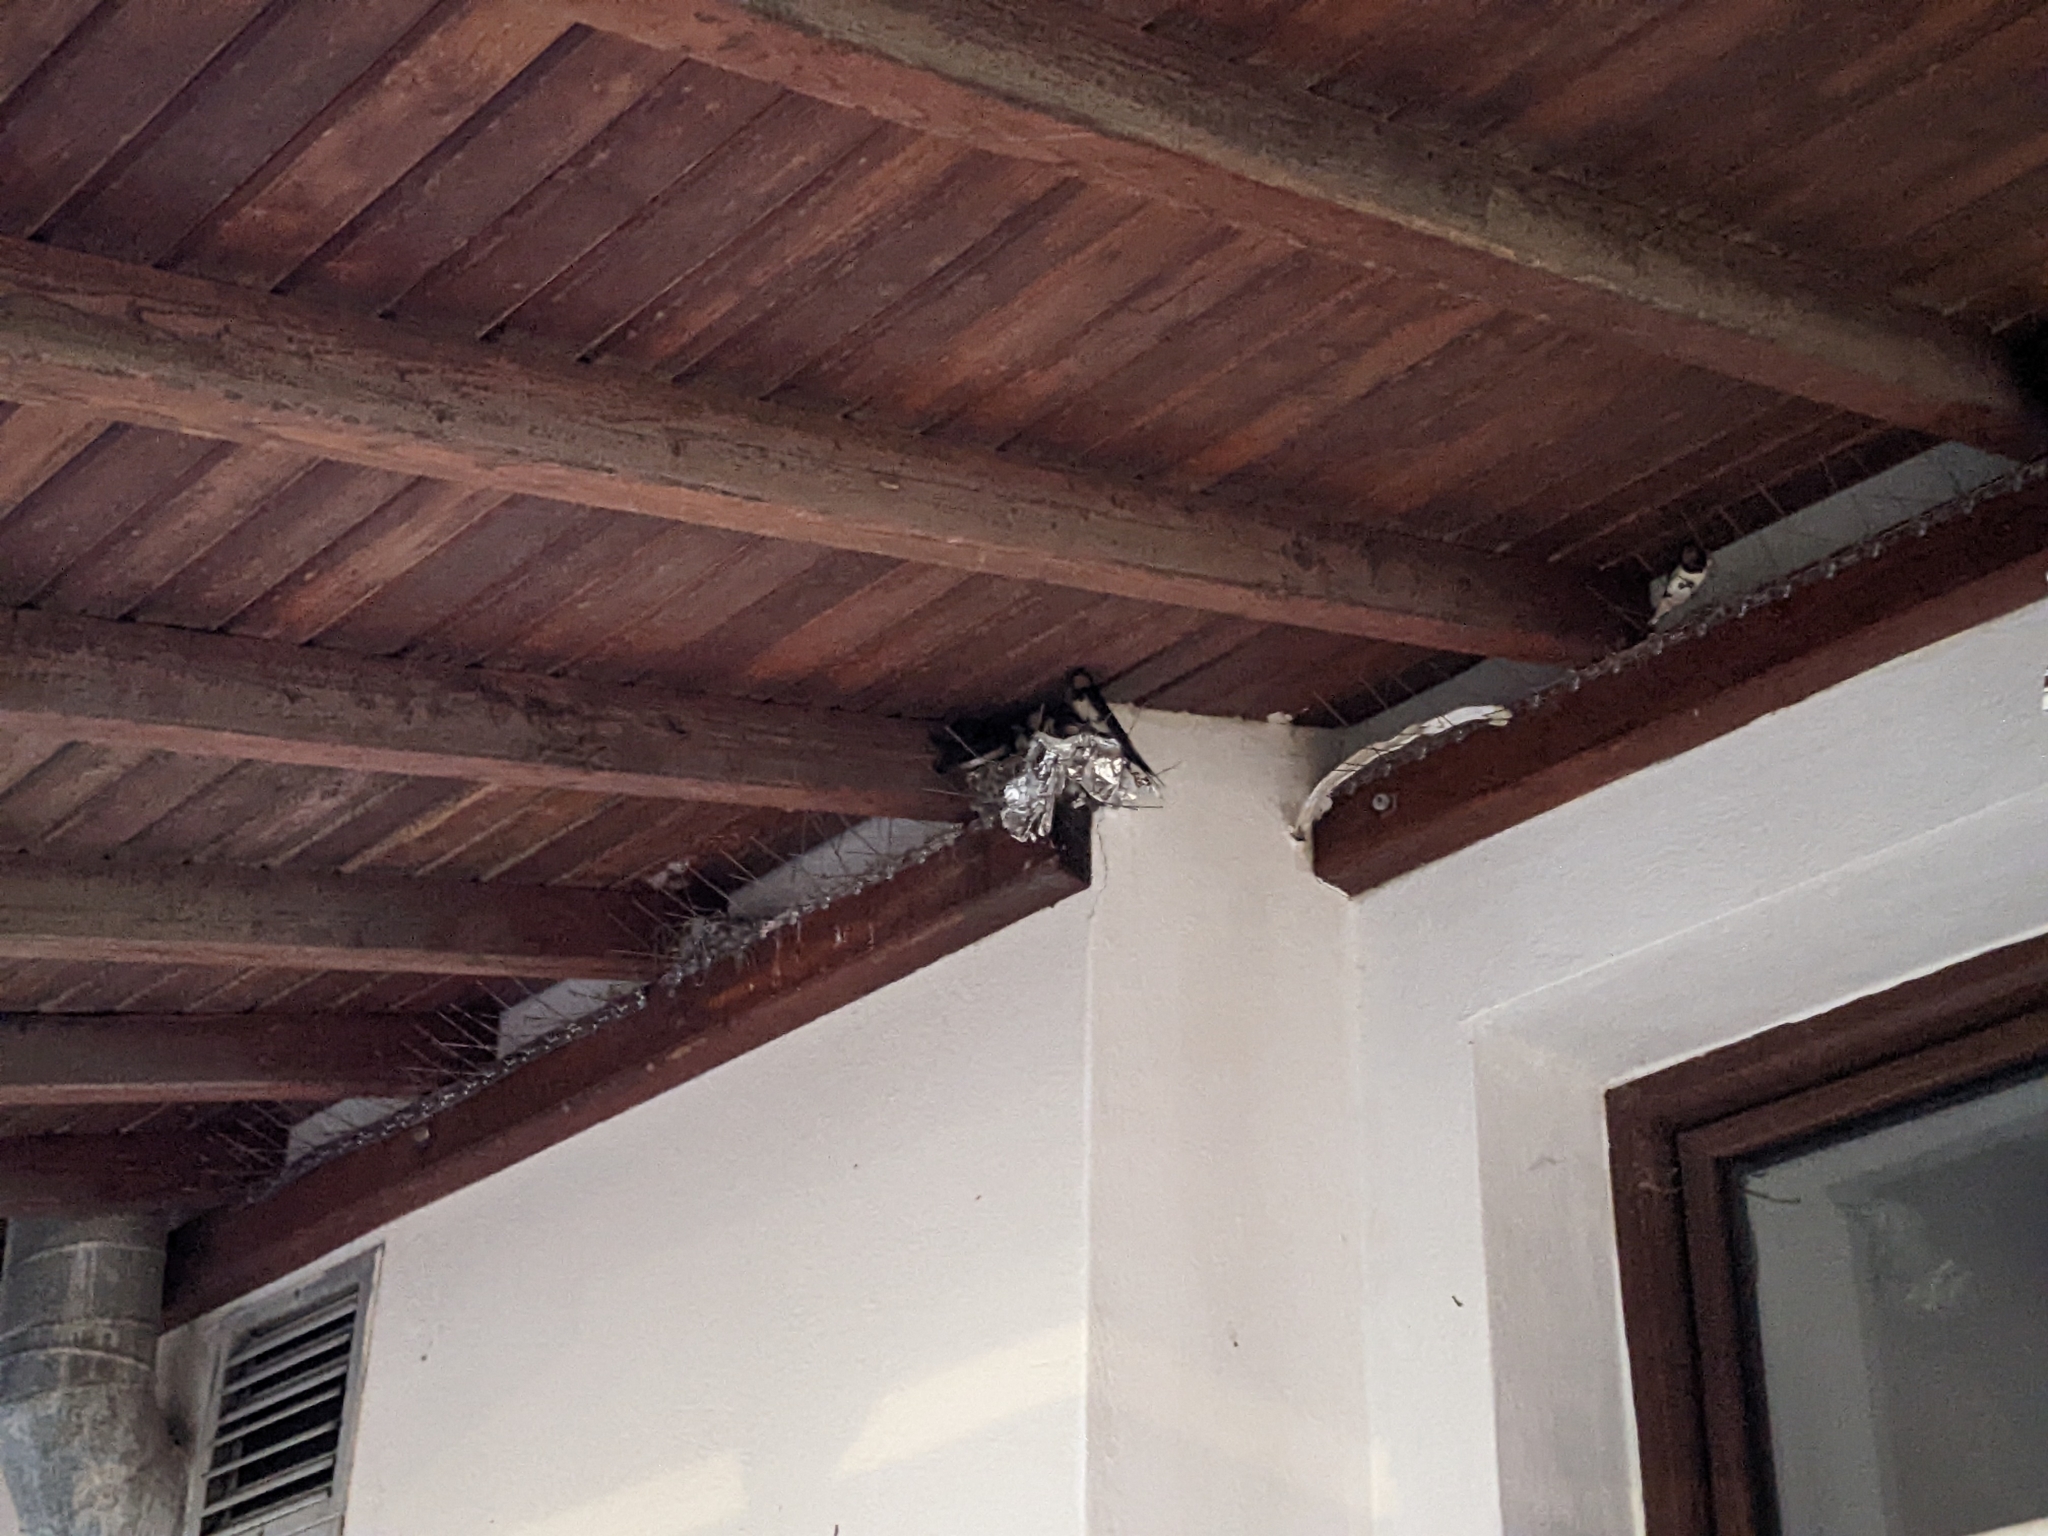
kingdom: Animalia
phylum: Chordata
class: Aves
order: Passeriformes
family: Hirundinidae
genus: Hirundo
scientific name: Hirundo rustica
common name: Barn swallow
